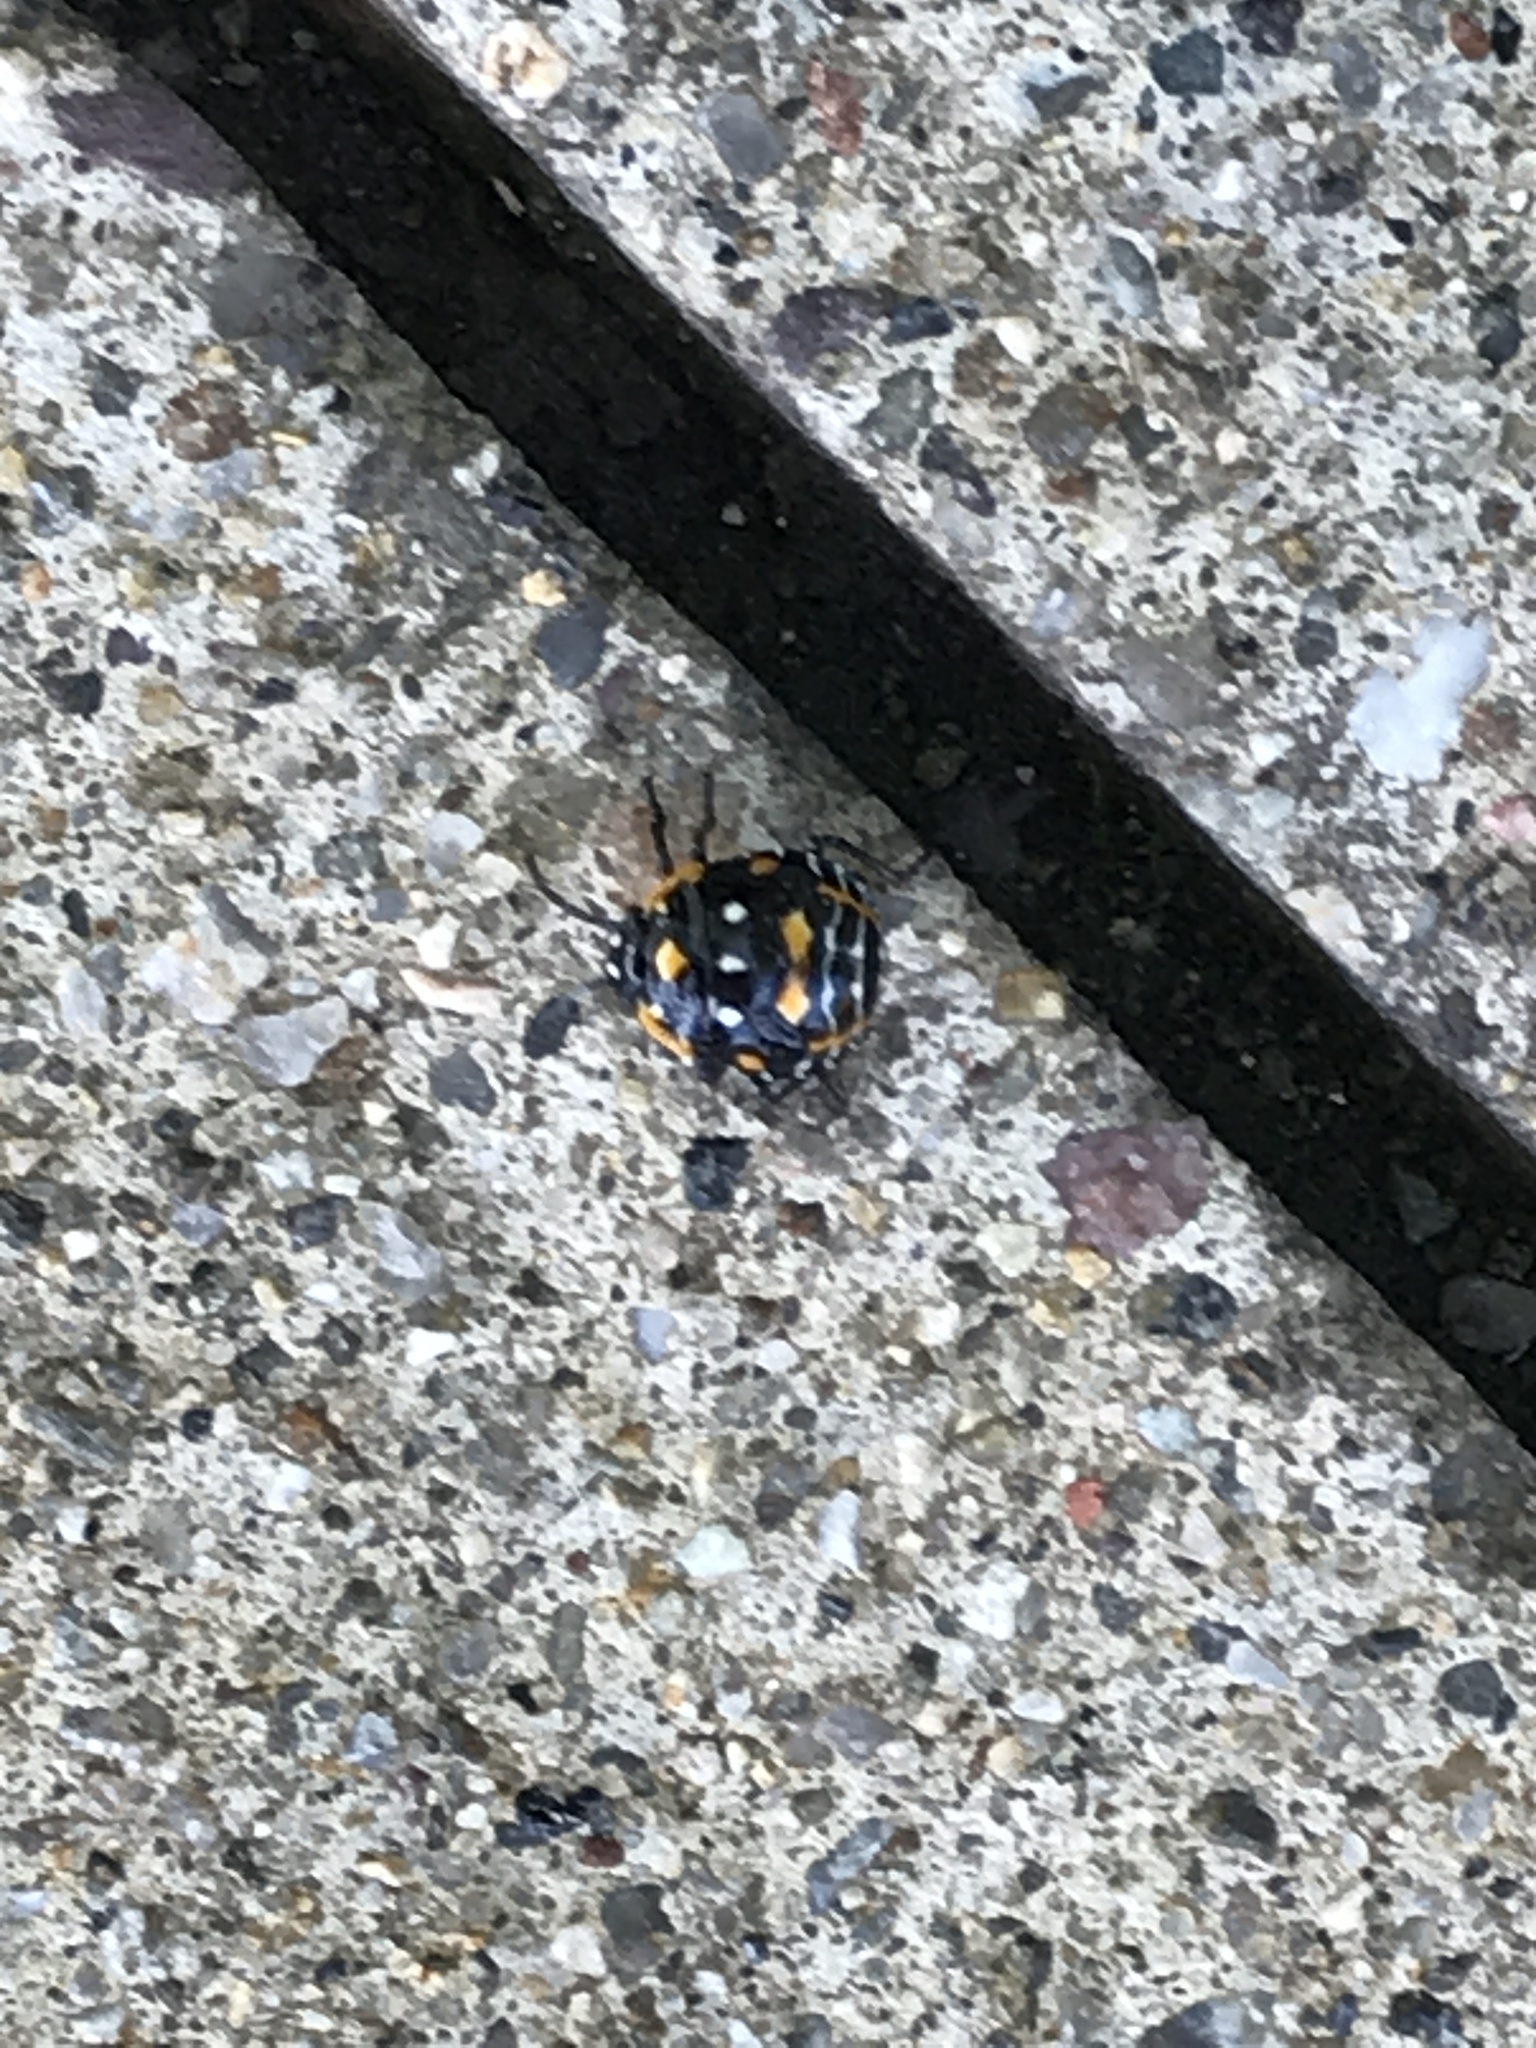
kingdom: Animalia
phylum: Arthropoda
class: Insecta
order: Hemiptera
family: Pentatomidae
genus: Murgantia
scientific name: Murgantia histrionica
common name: Harlequin bug
